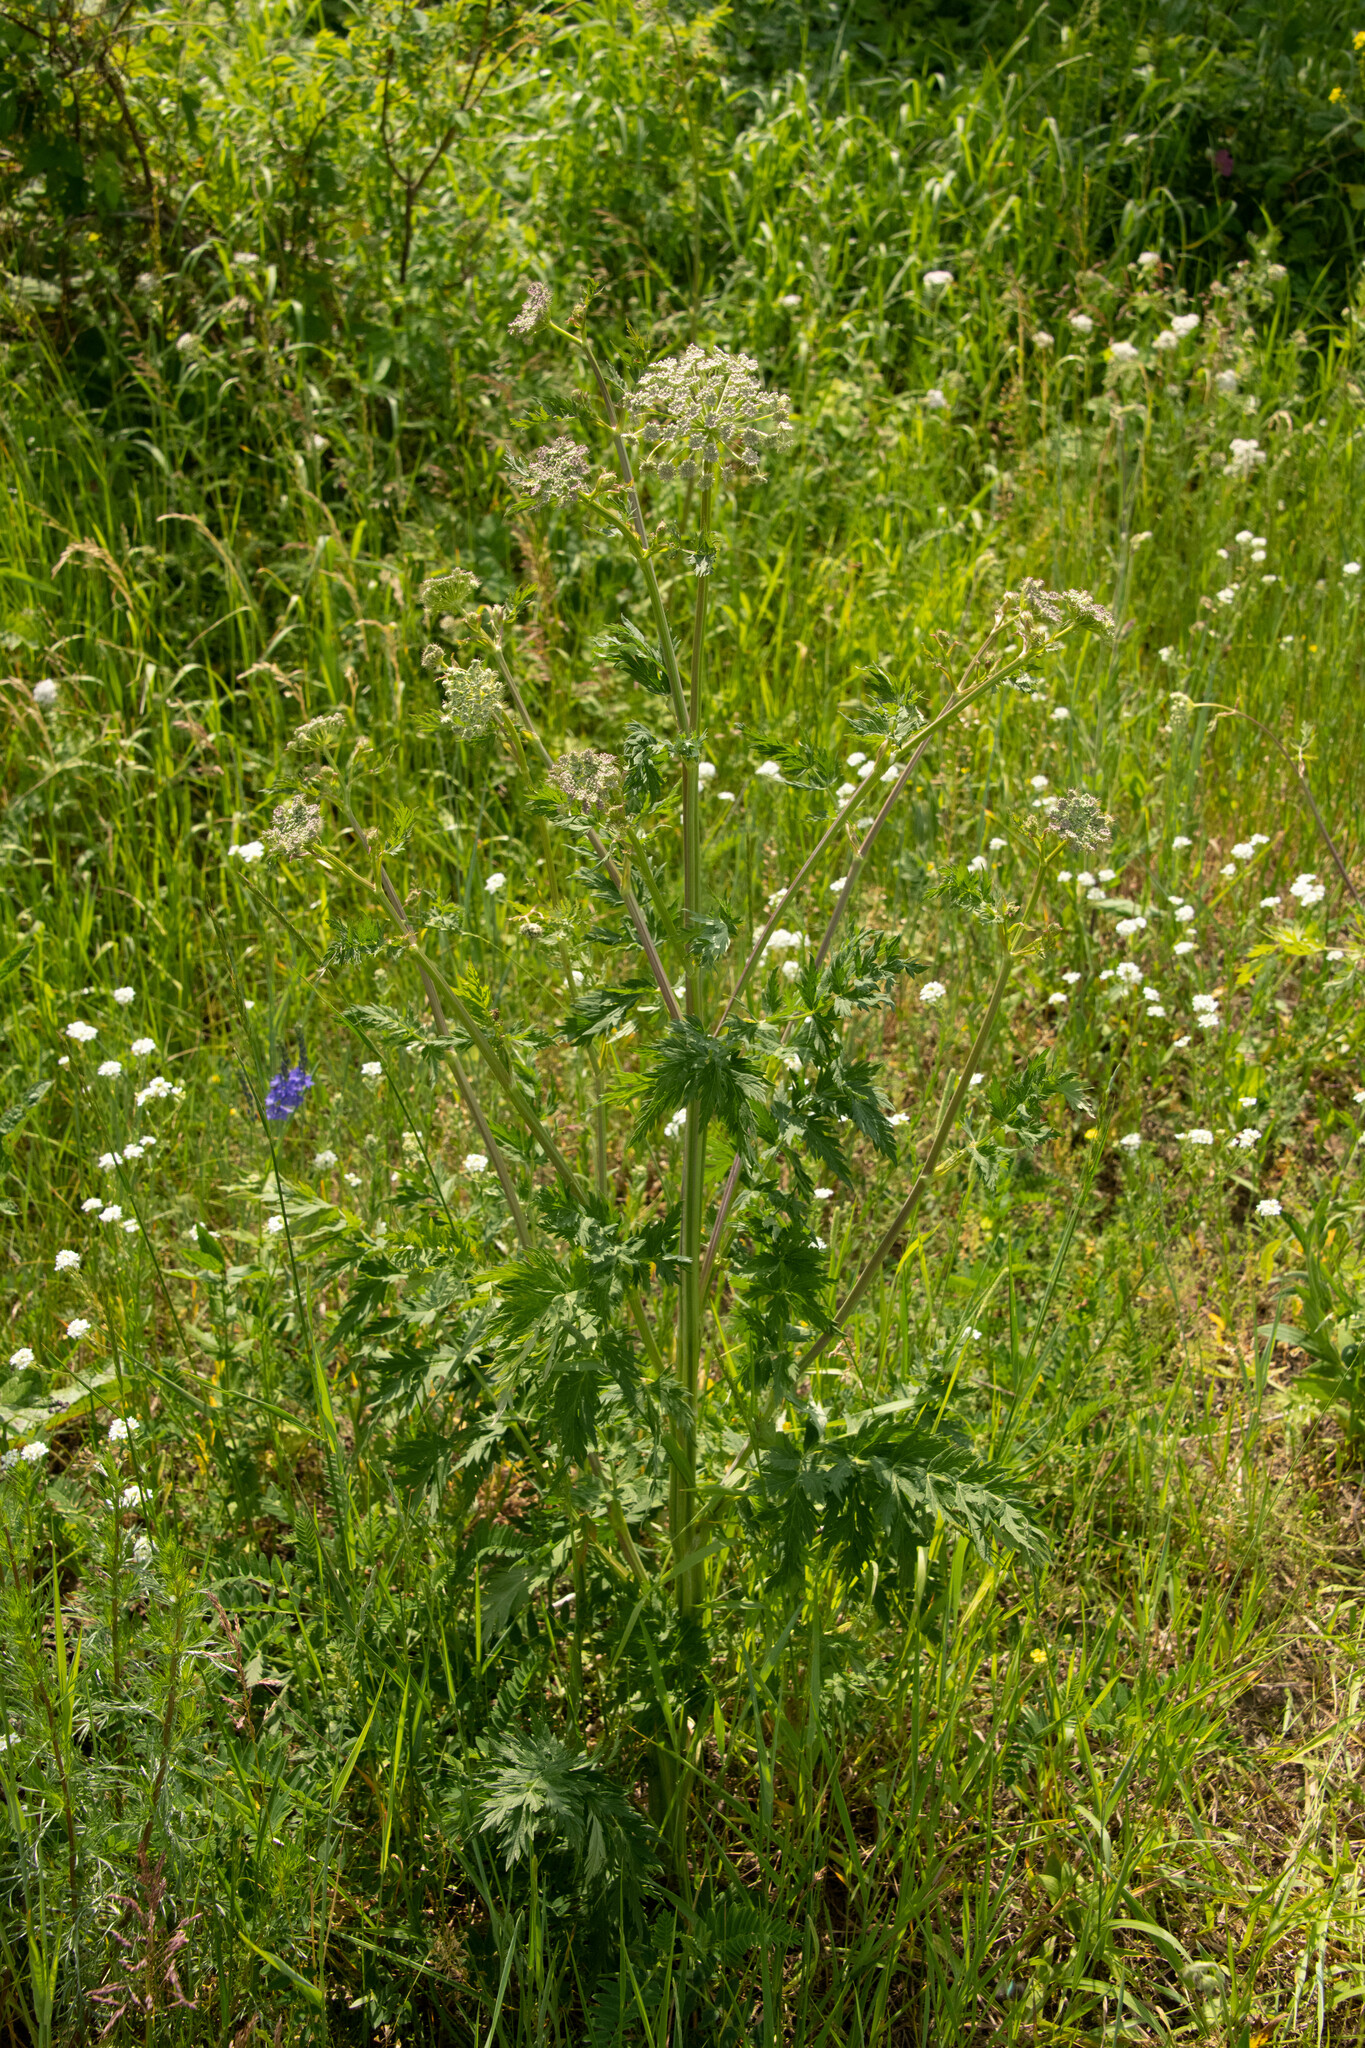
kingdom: Plantae
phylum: Tracheophyta
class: Magnoliopsida
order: Apiales
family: Apiaceae
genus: Seseli
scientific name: Seseli libanotis
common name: Mooncarrot
